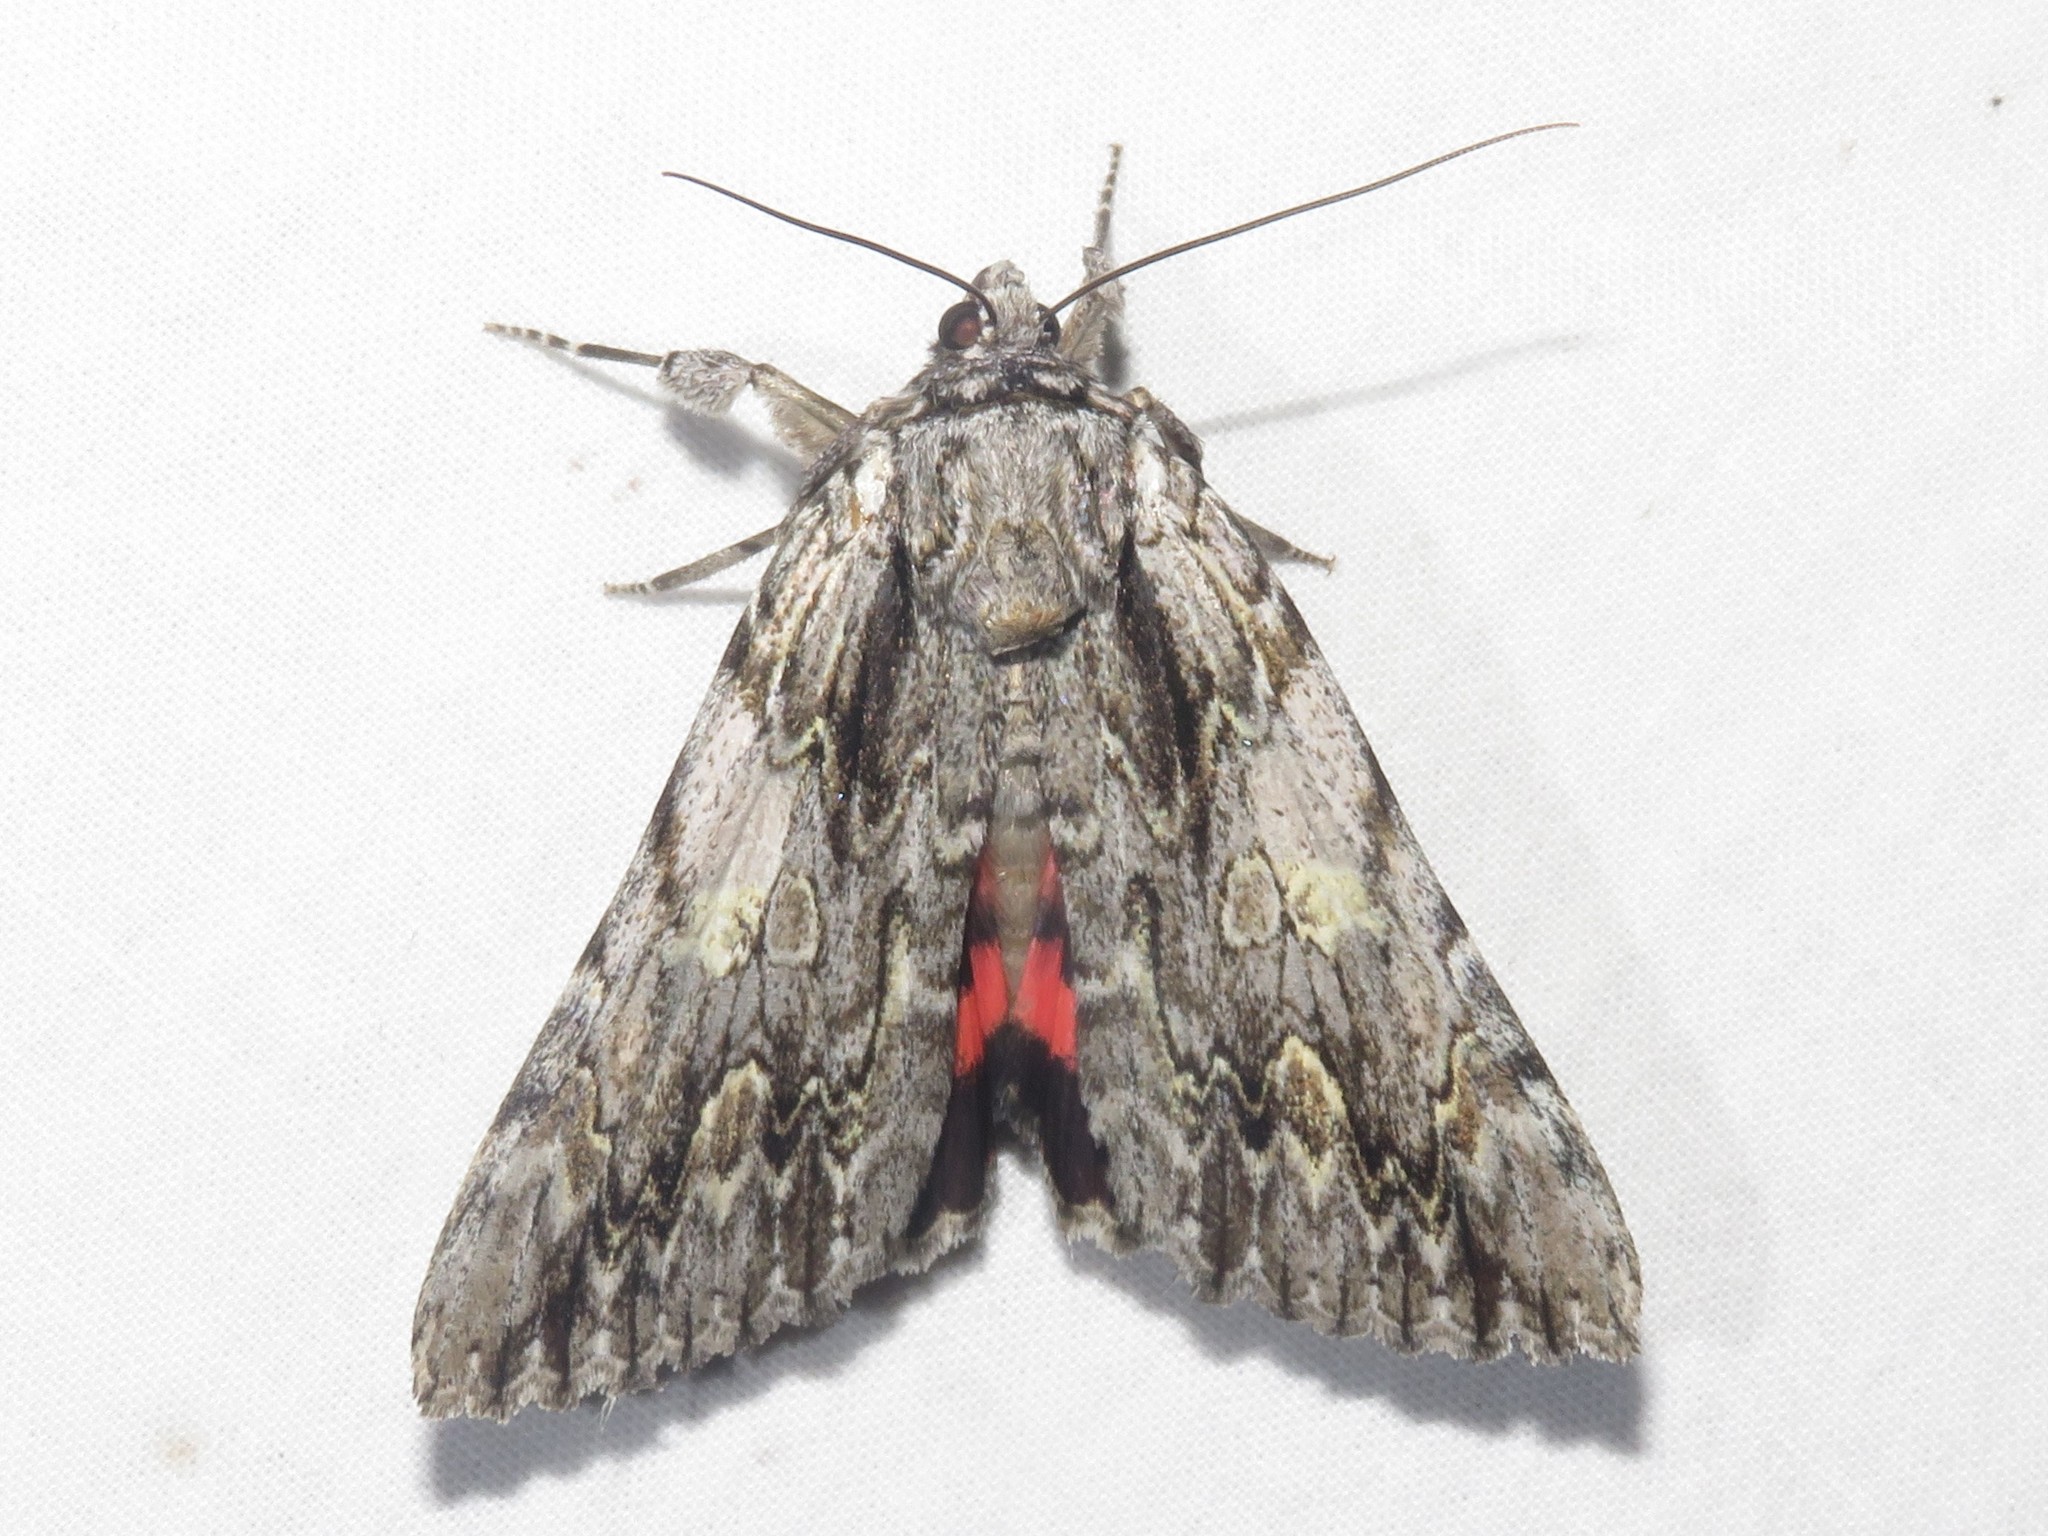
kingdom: Animalia
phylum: Arthropoda
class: Insecta
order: Lepidoptera
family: Erebidae
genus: Catocala
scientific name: Catocala coccinata
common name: Scarlet underwing
